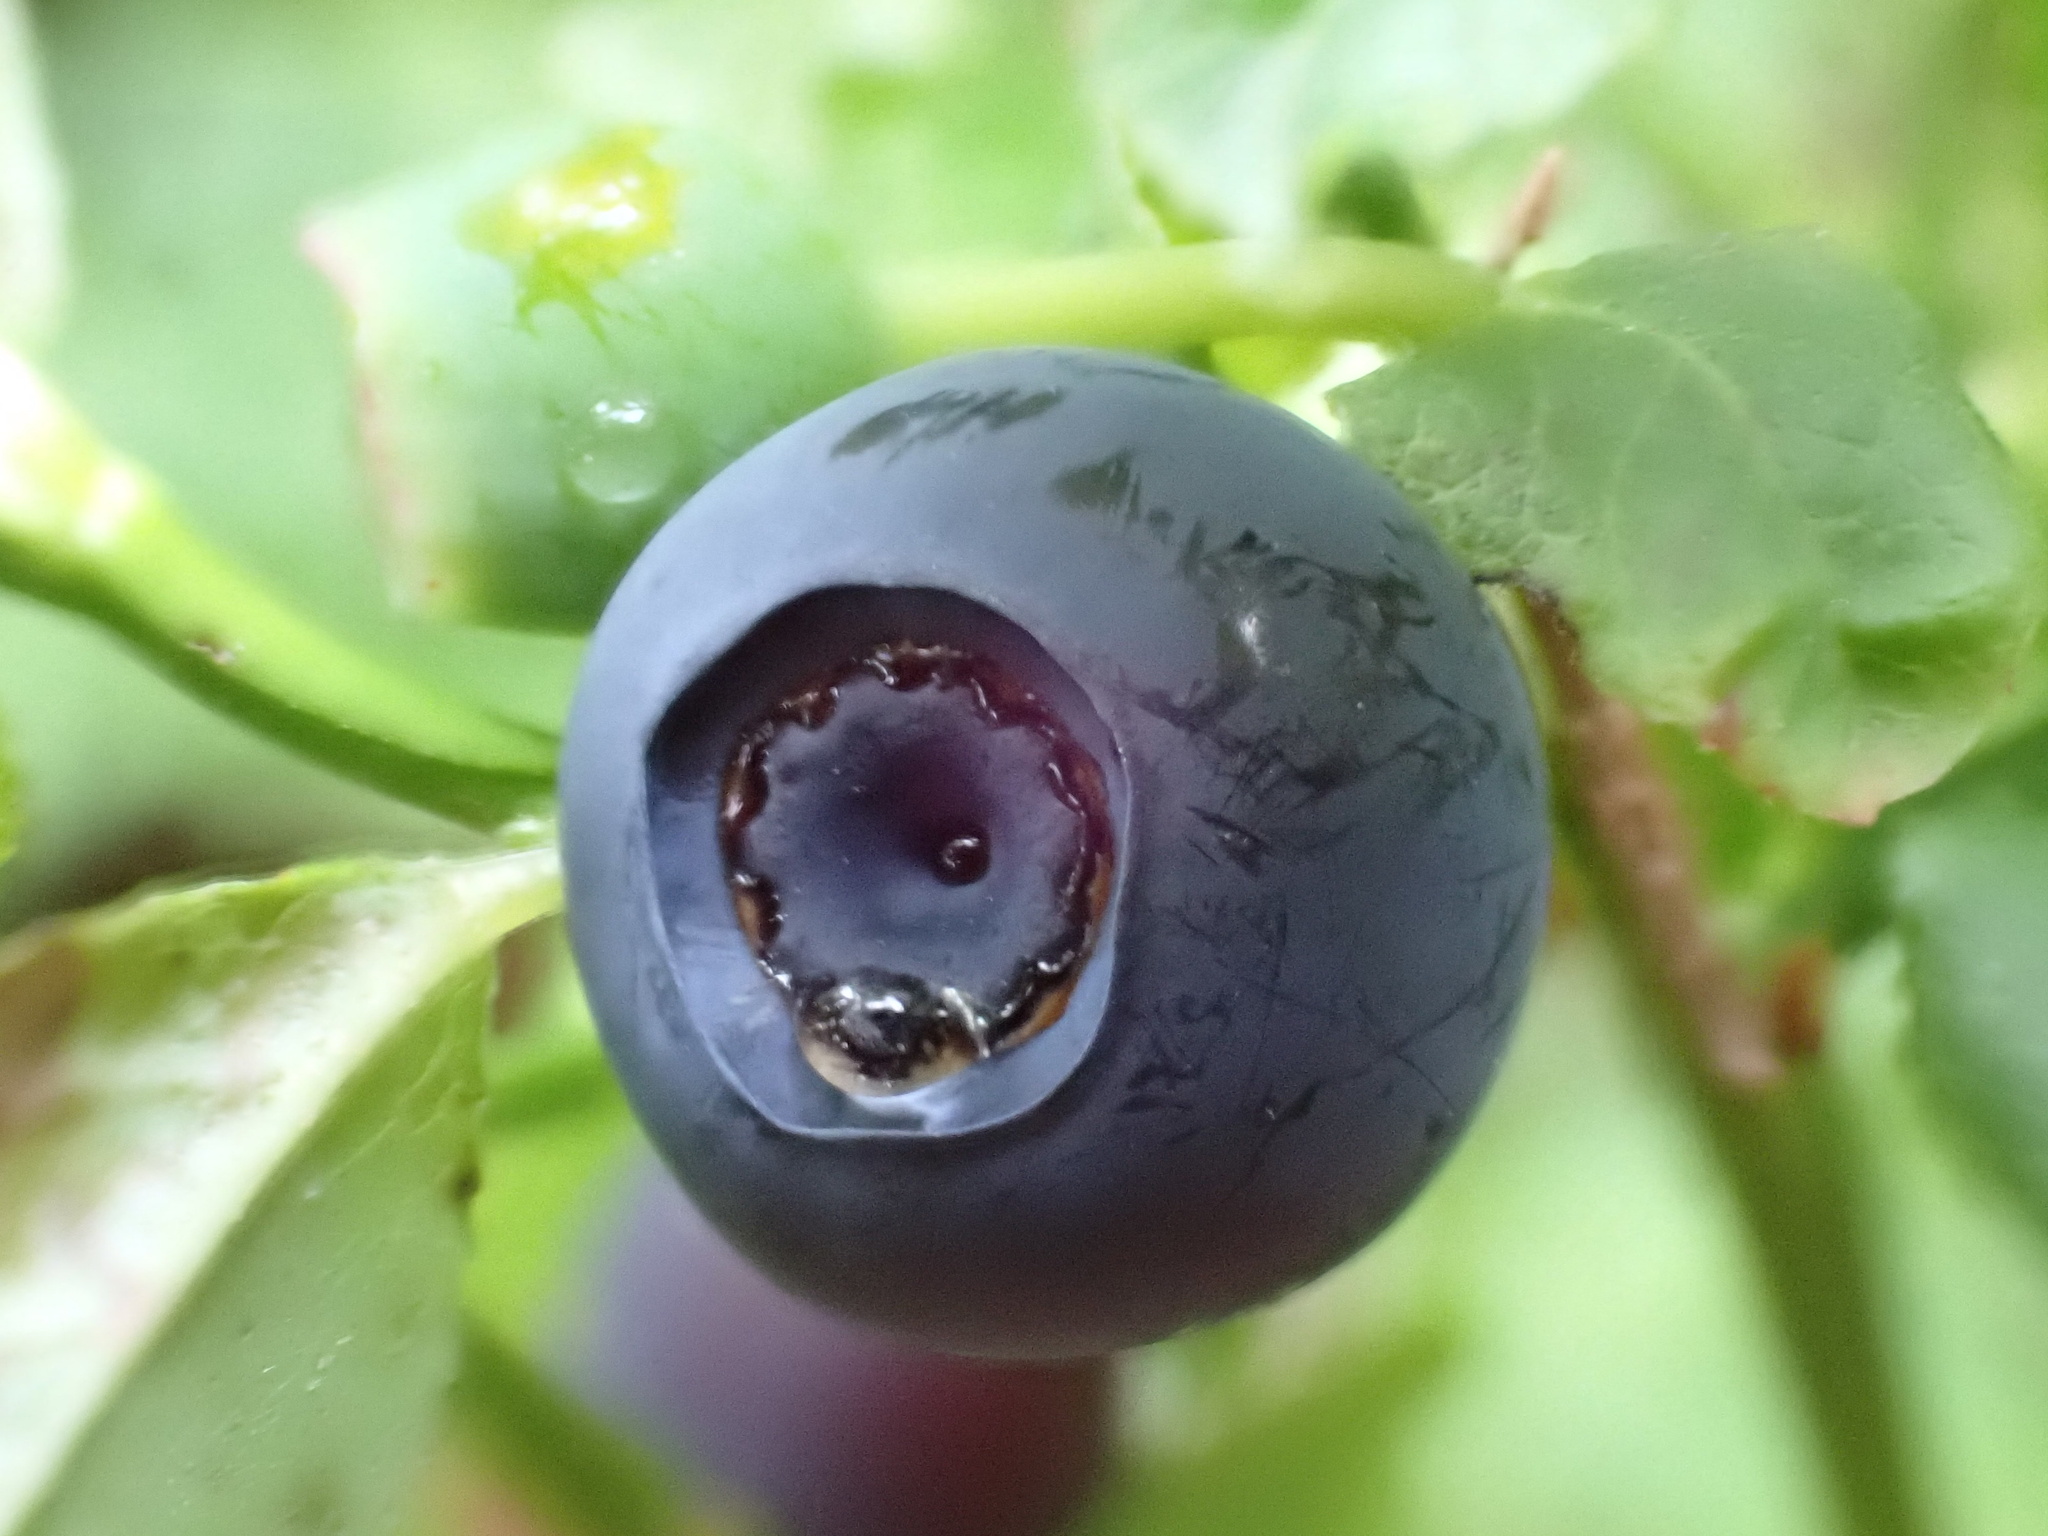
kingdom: Plantae
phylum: Tracheophyta
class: Magnoliopsida
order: Ericales
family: Ericaceae
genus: Vaccinium
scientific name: Vaccinium myrtillus
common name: Bilberry
